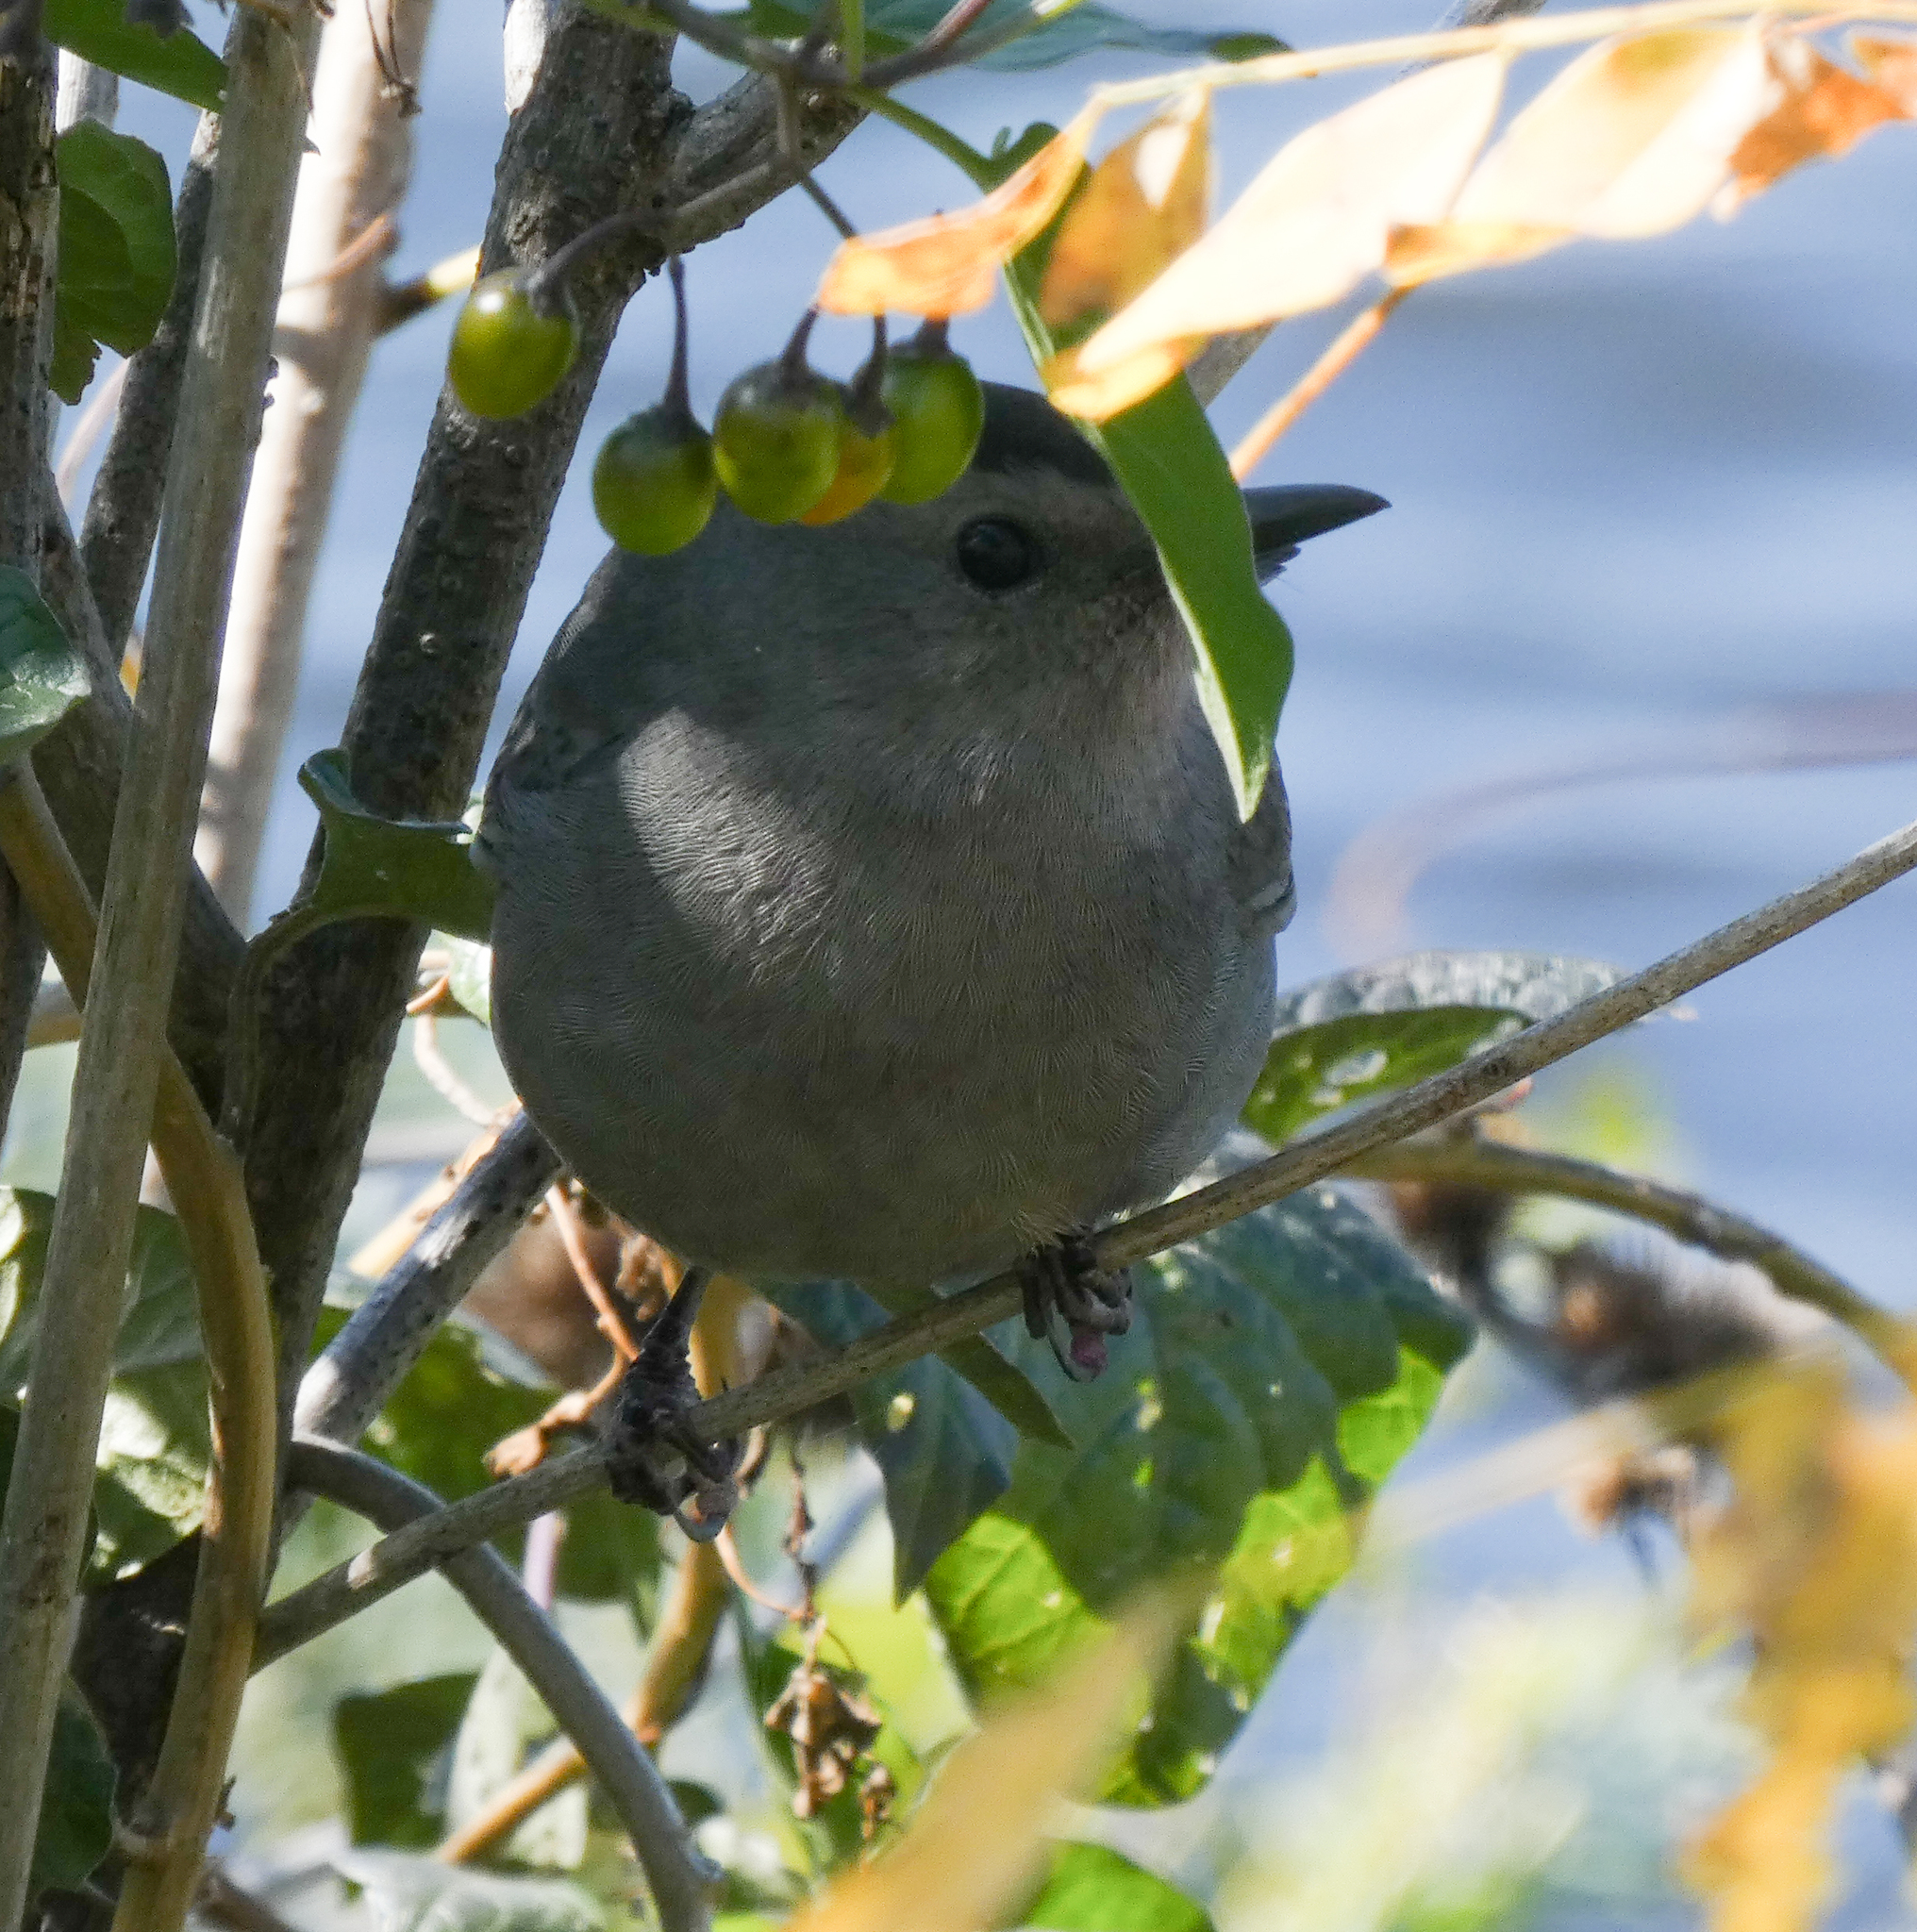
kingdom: Animalia
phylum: Chordata
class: Aves
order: Passeriformes
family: Mimidae
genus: Dumetella
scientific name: Dumetella carolinensis
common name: Gray catbird
